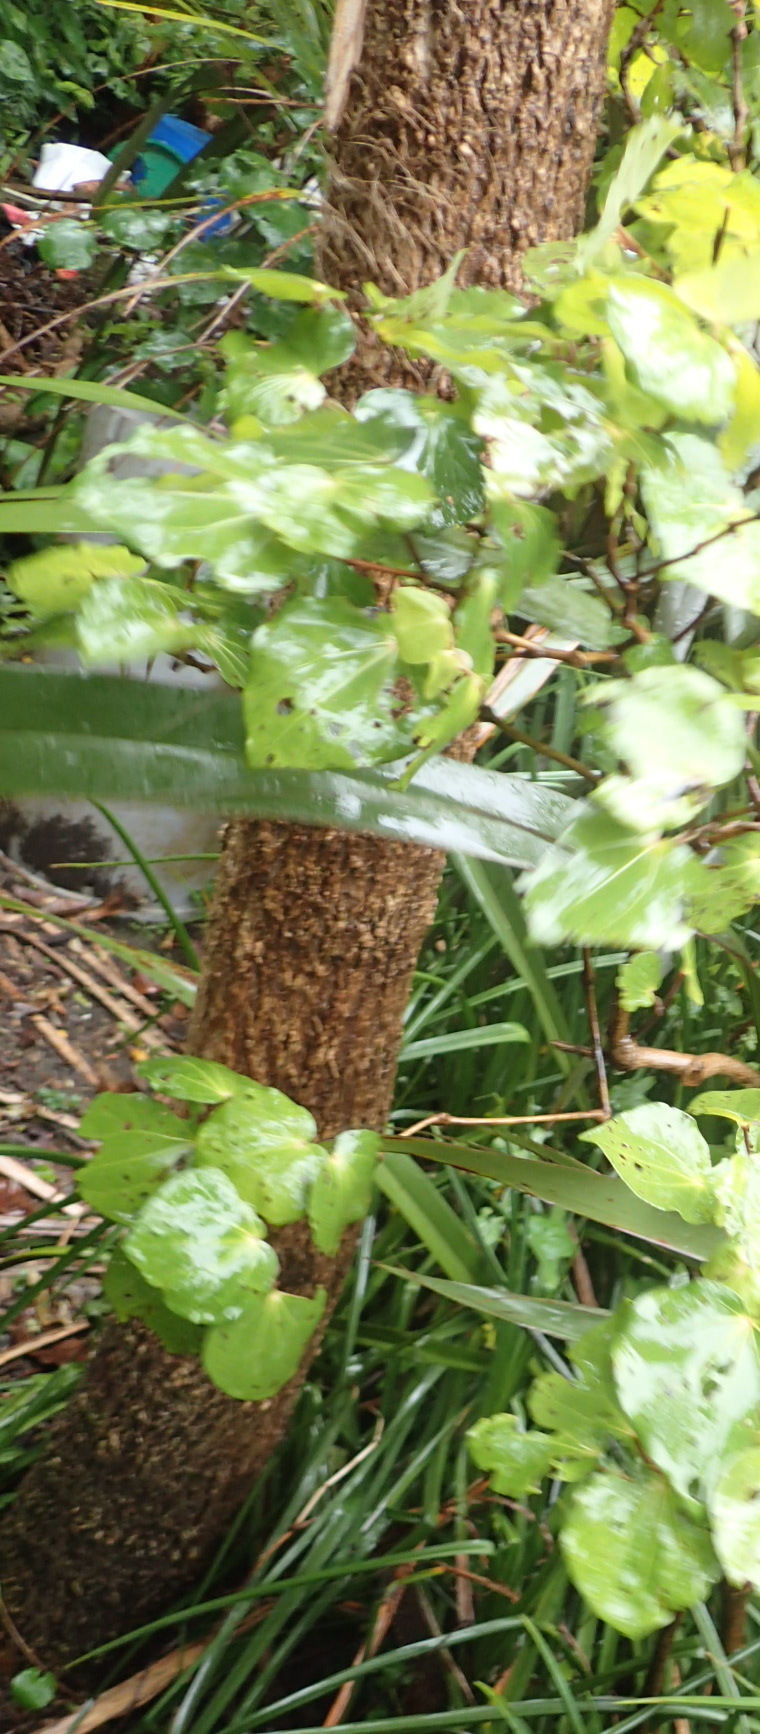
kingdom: Plantae
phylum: Tracheophyta
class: Liliopsida
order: Asparagales
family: Asparagaceae
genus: Cordyline
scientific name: Cordyline australis
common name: Cabbage-palm
